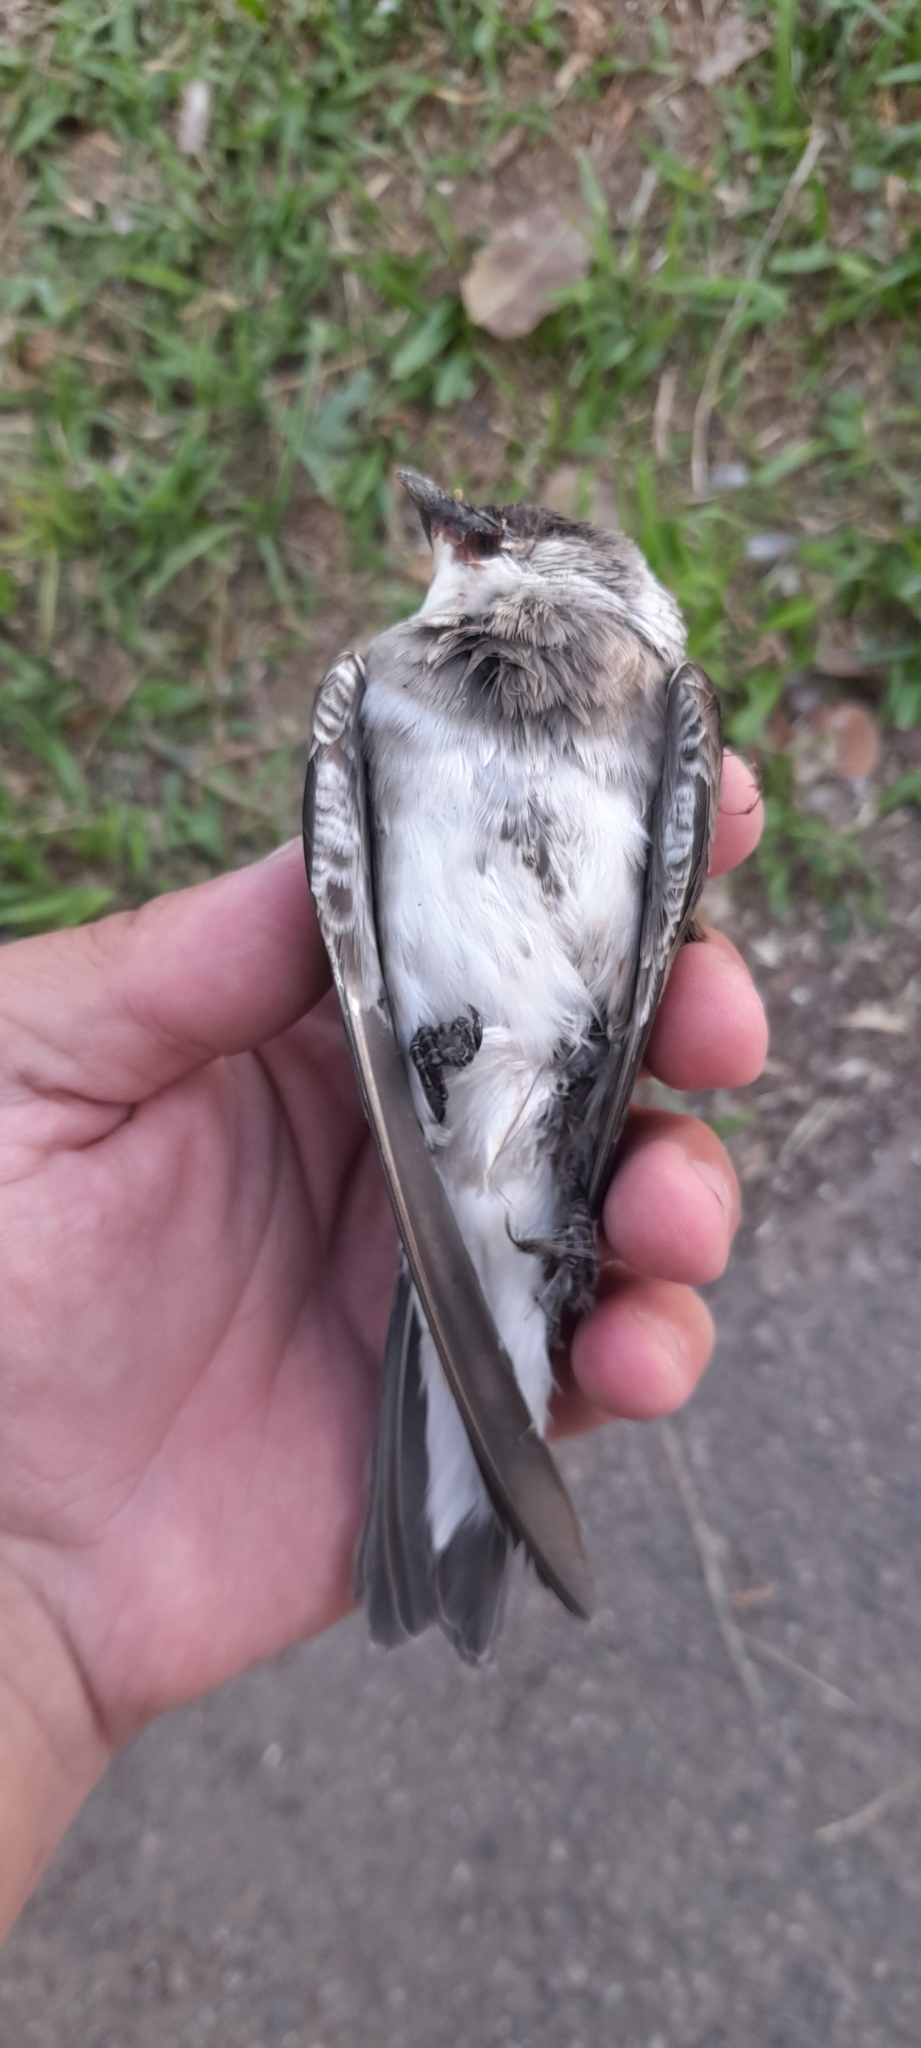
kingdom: Animalia
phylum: Chordata
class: Aves
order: Passeriformes
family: Hirundinidae
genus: Progne
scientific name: Progne tapera
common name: Brown-chested martin
